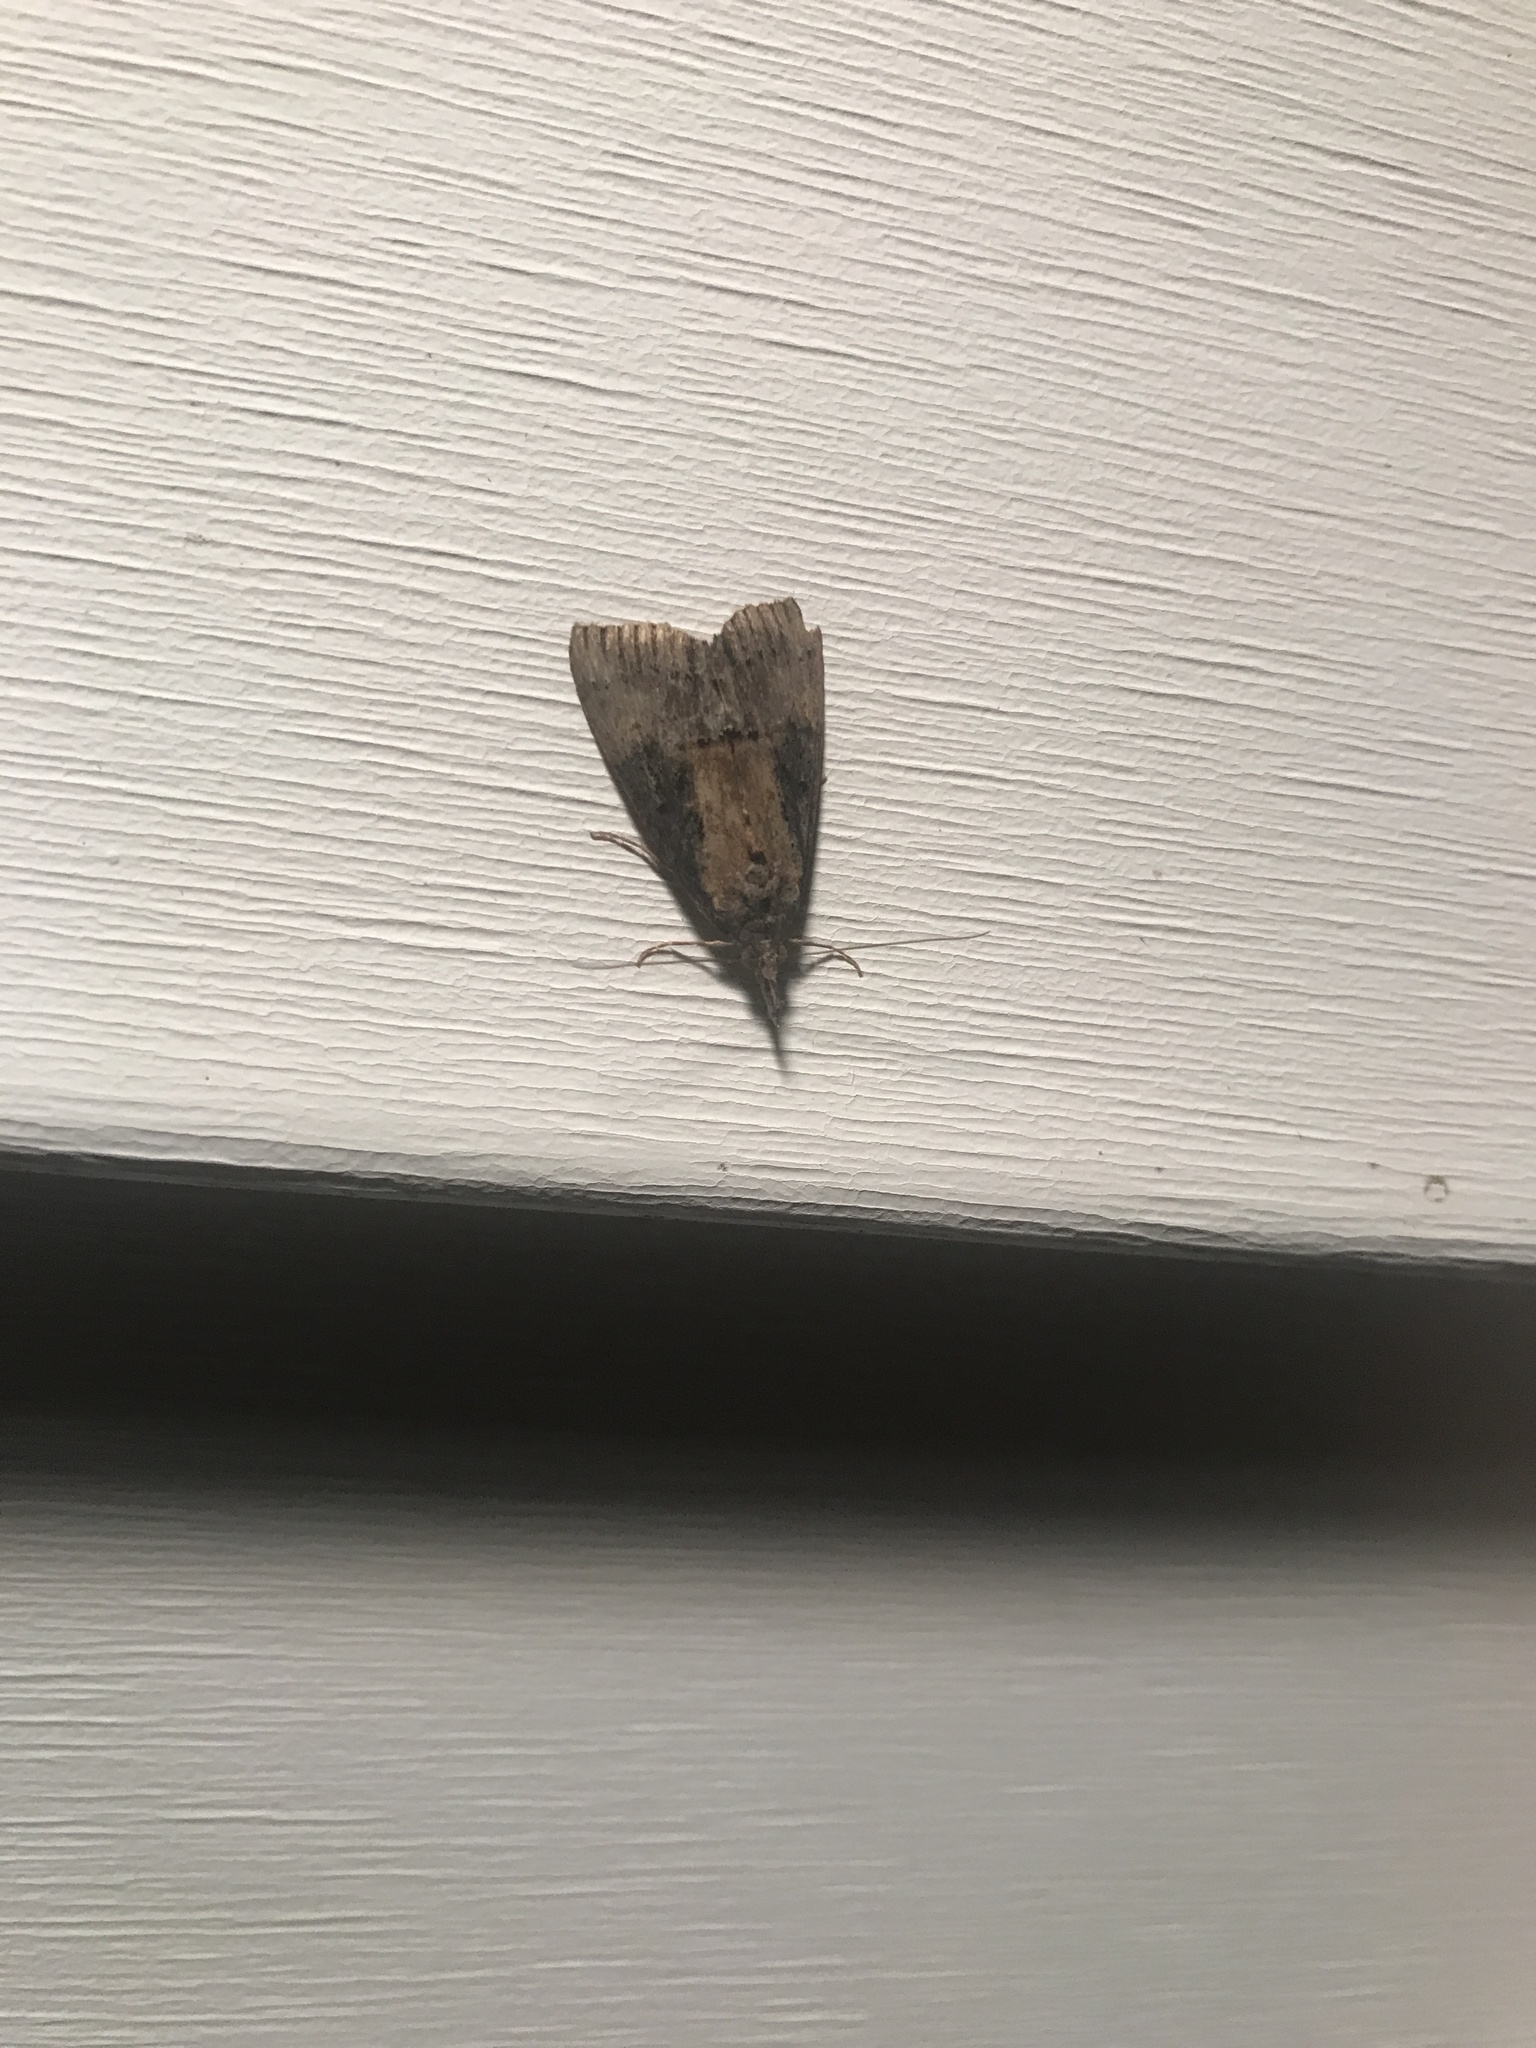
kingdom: Animalia
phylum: Arthropoda
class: Insecta
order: Lepidoptera
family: Erebidae
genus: Hypena
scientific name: Hypena scabra
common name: Green cloverworm
